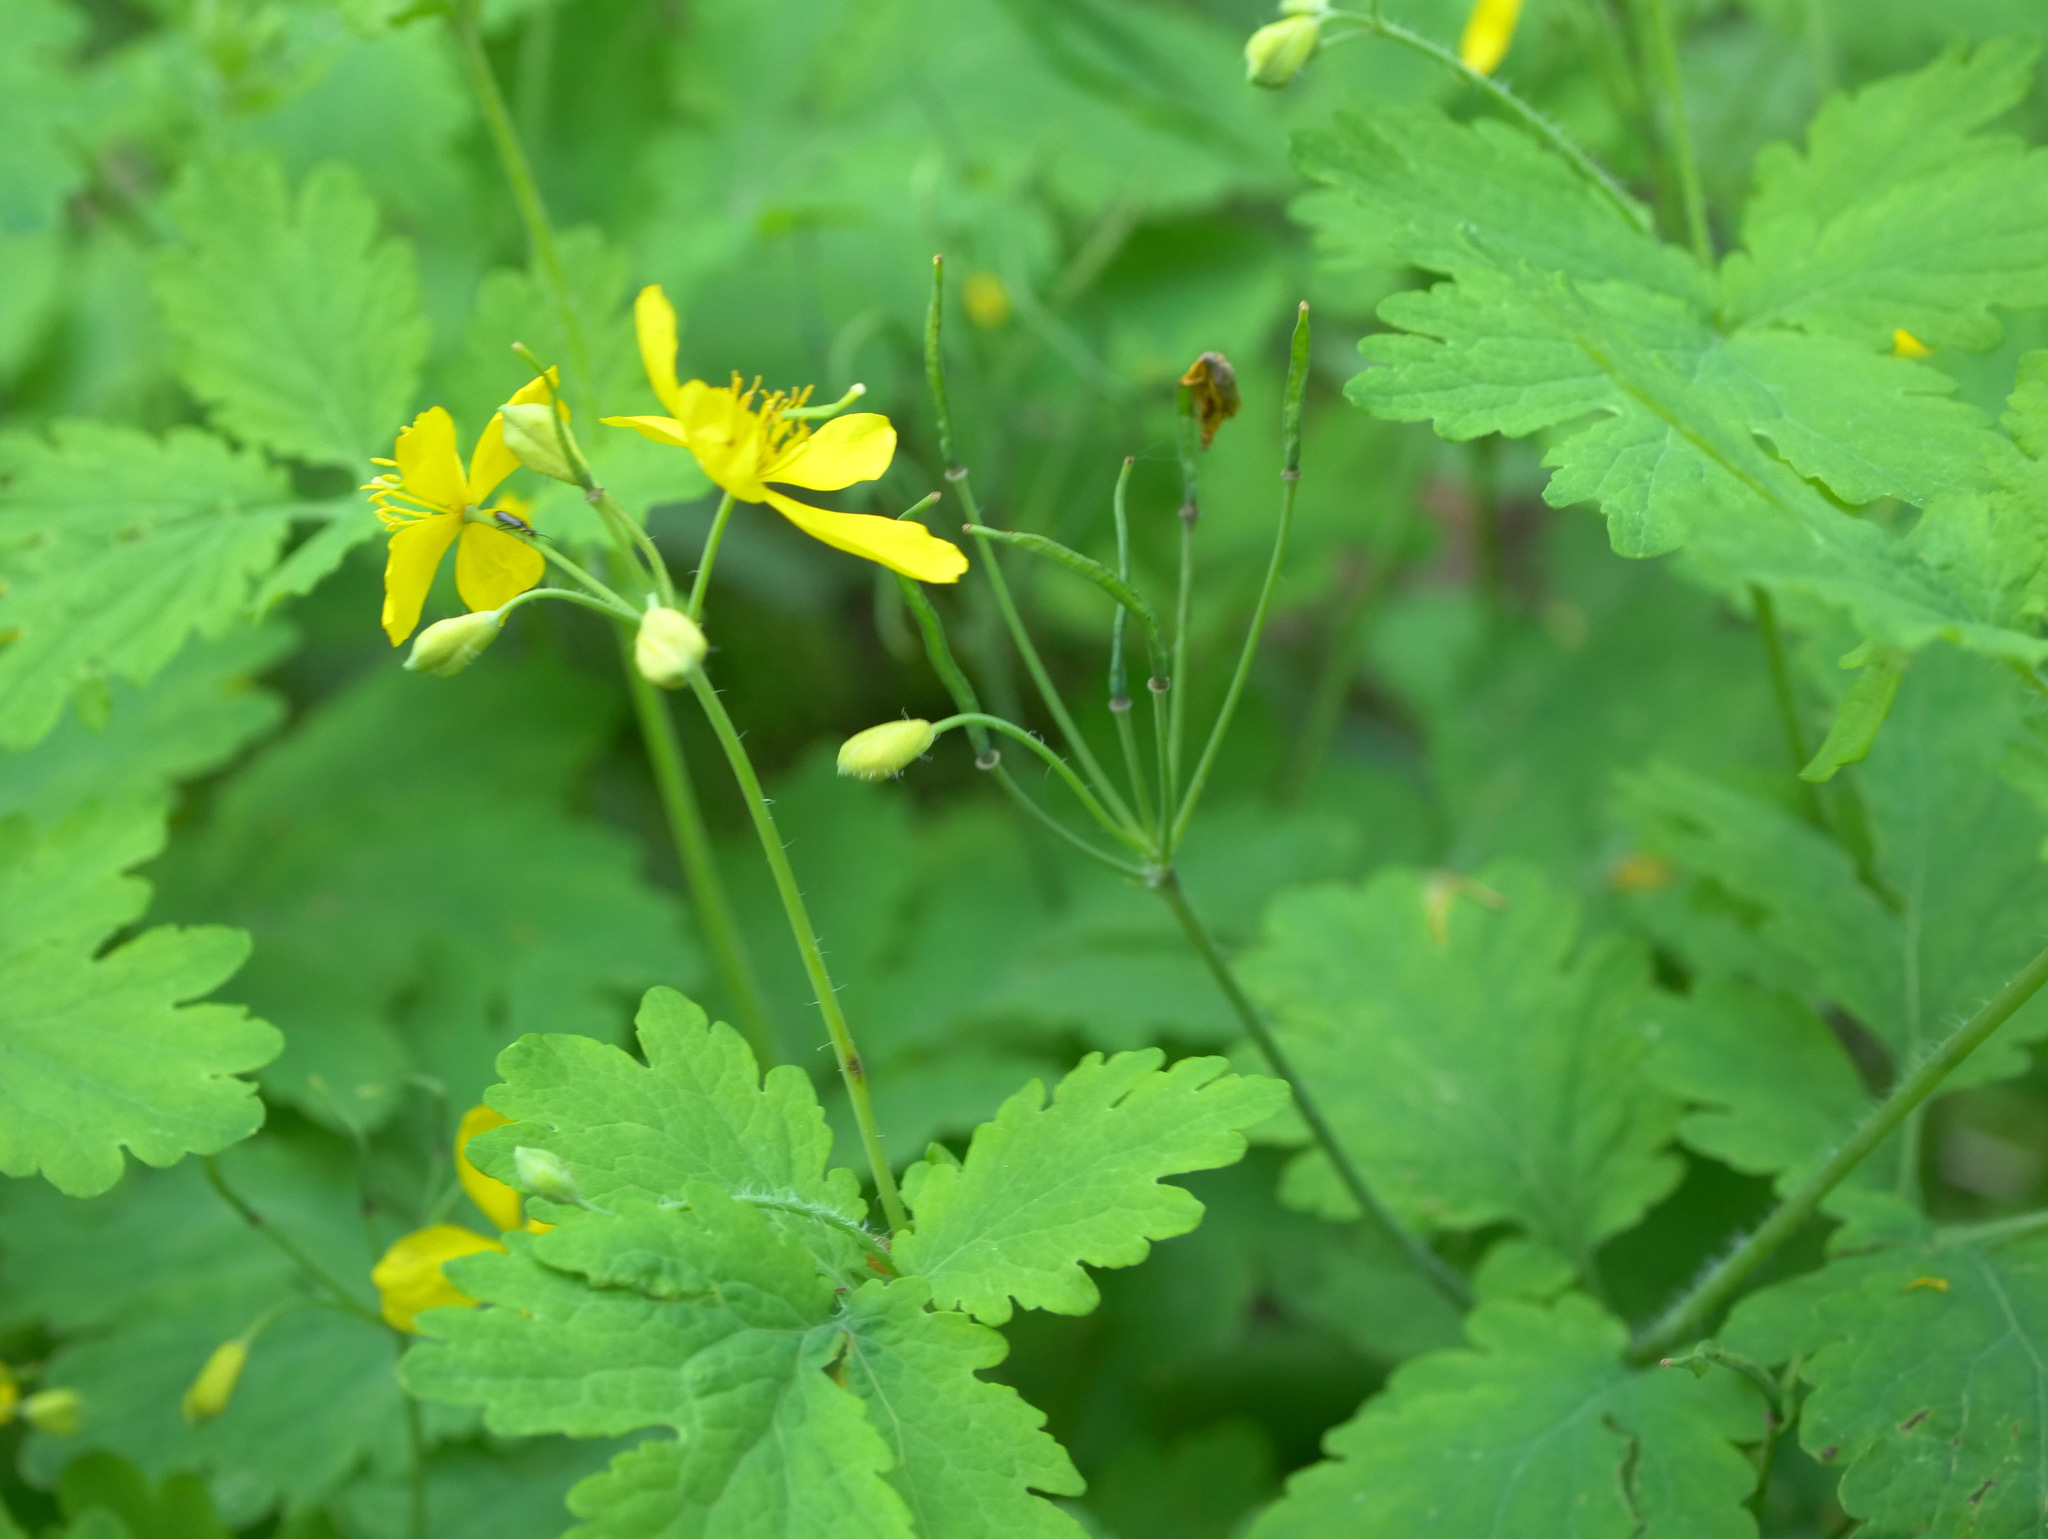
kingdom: Plantae
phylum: Tracheophyta
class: Magnoliopsida
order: Ranunculales
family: Papaveraceae
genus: Chelidonium
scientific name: Chelidonium majus
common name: Greater celandine
